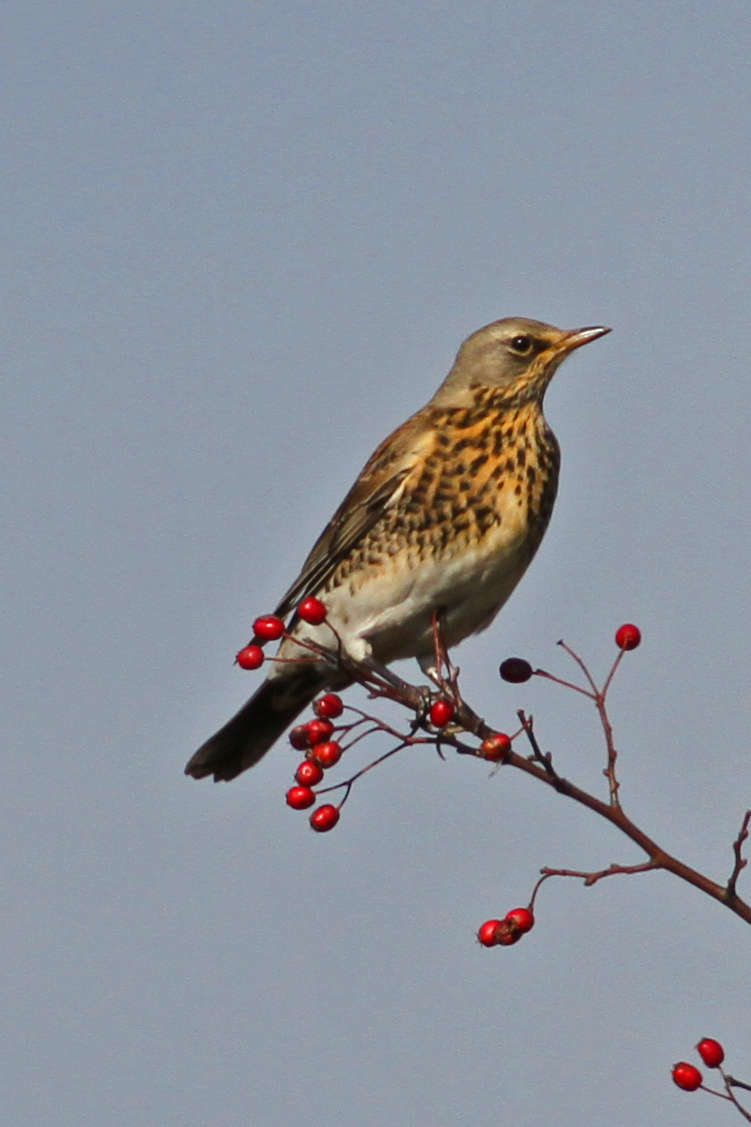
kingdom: Animalia
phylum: Chordata
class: Aves
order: Passeriformes
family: Turdidae
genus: Turdus
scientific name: Turdus pilaris
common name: Fieldfare
